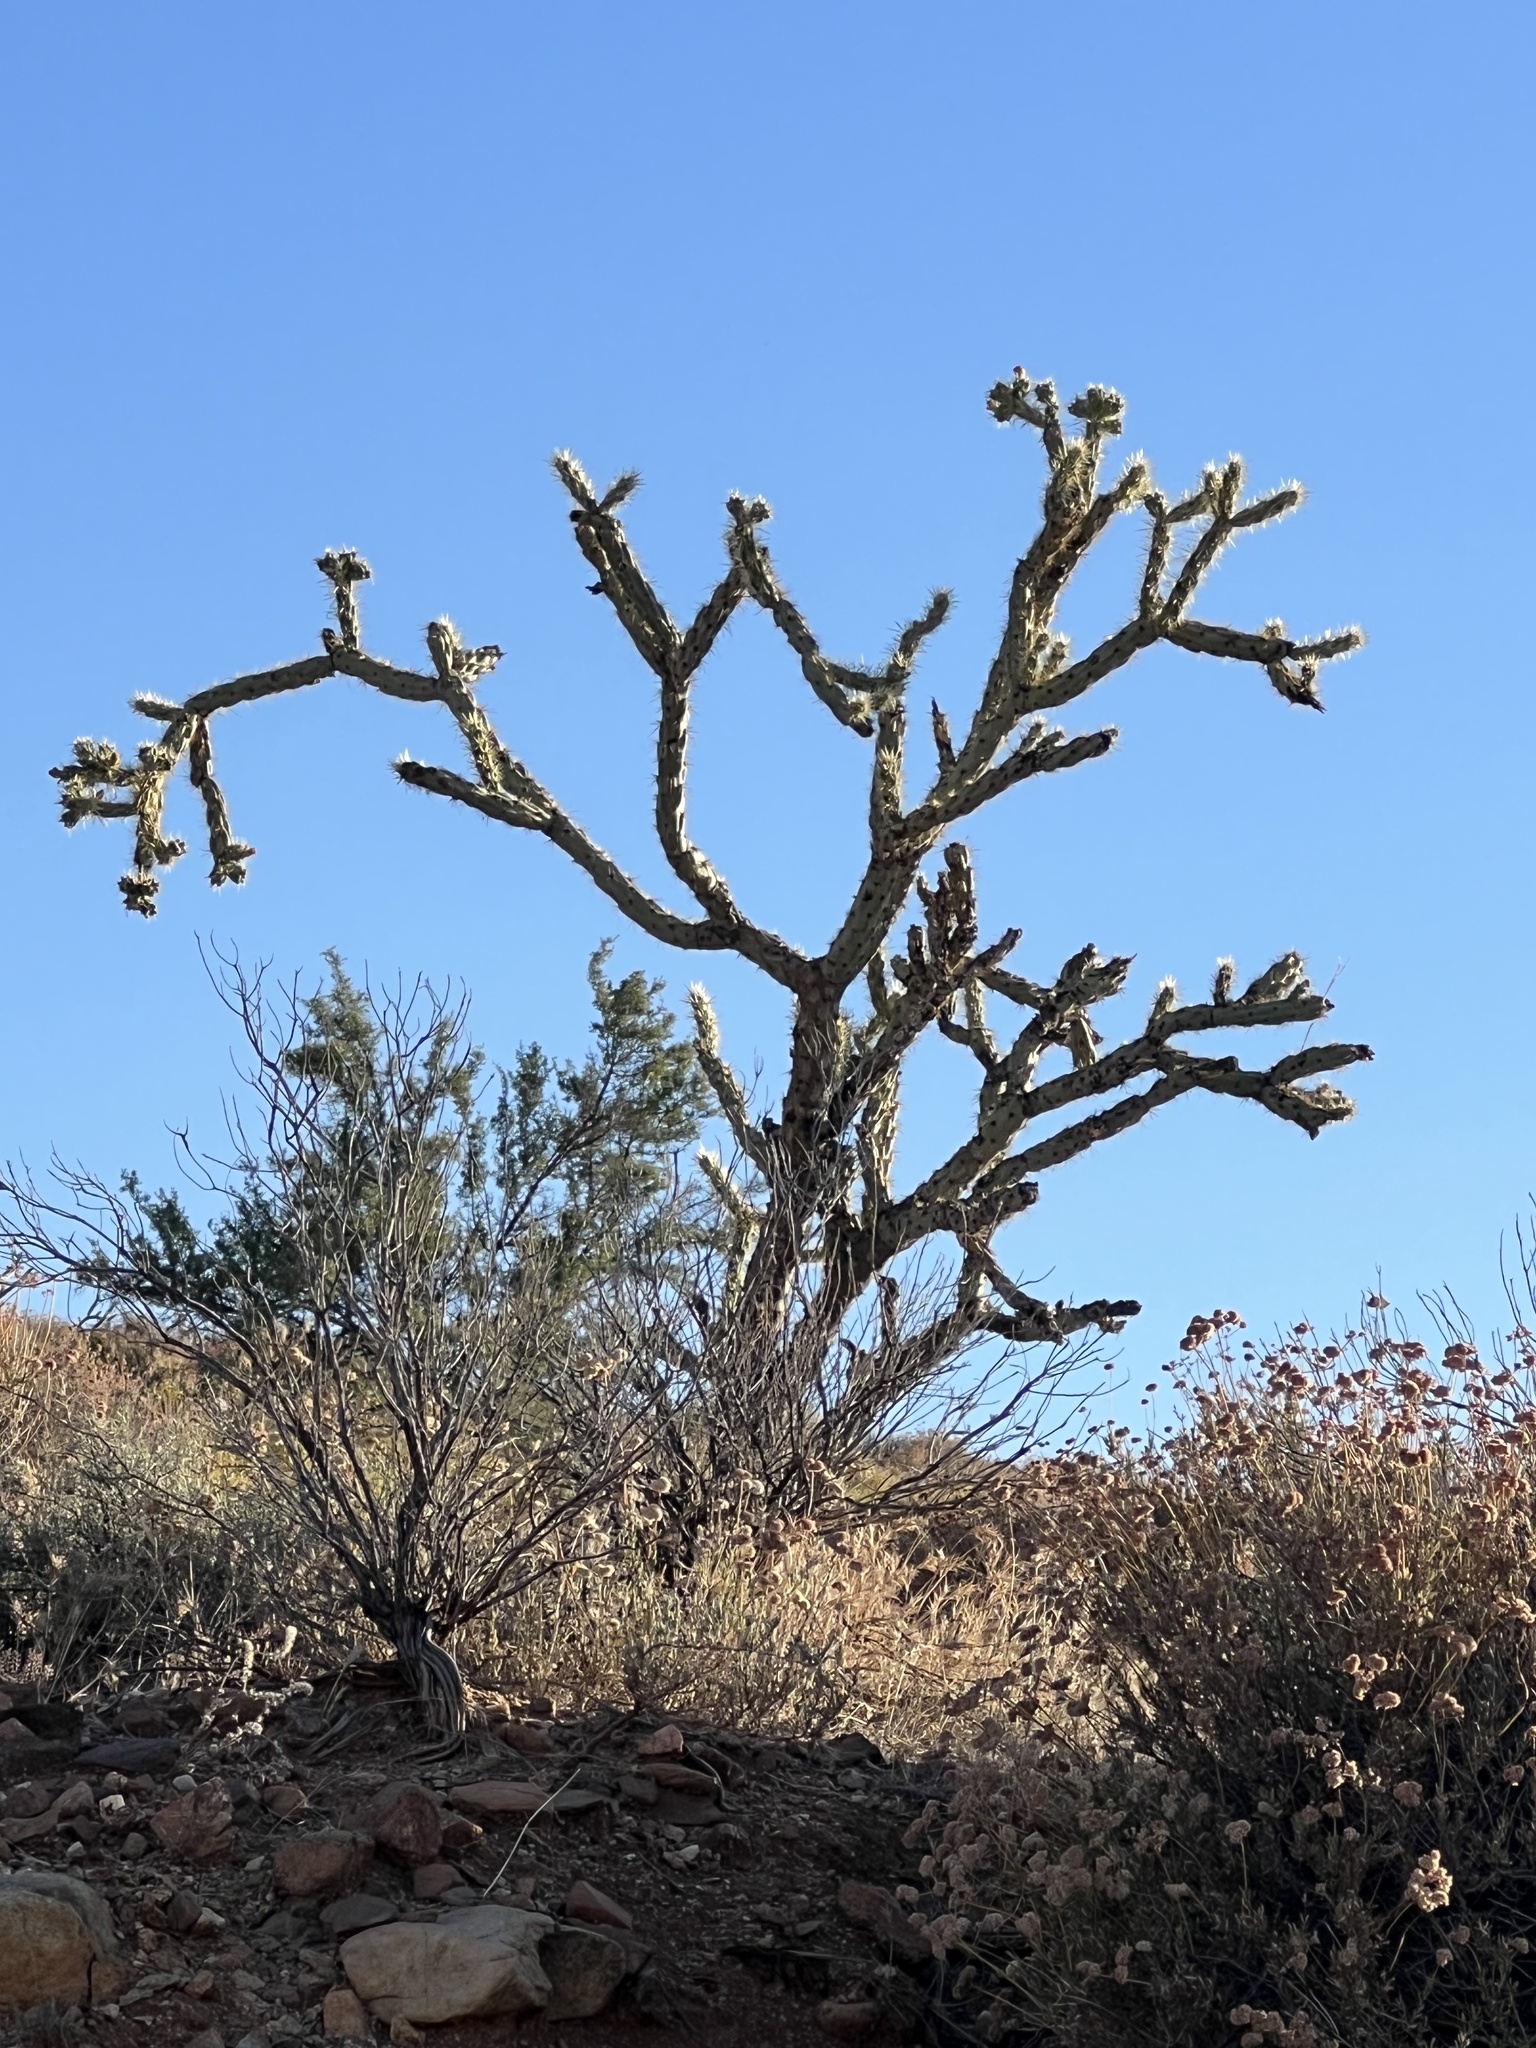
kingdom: Plantae
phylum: Tracheophyta
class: Magnoliopsida
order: Caryophyllales
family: Cactaceae
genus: Cylindropuntia
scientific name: Cylindropuntia acanthocarpa
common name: Buckhorn cholla
